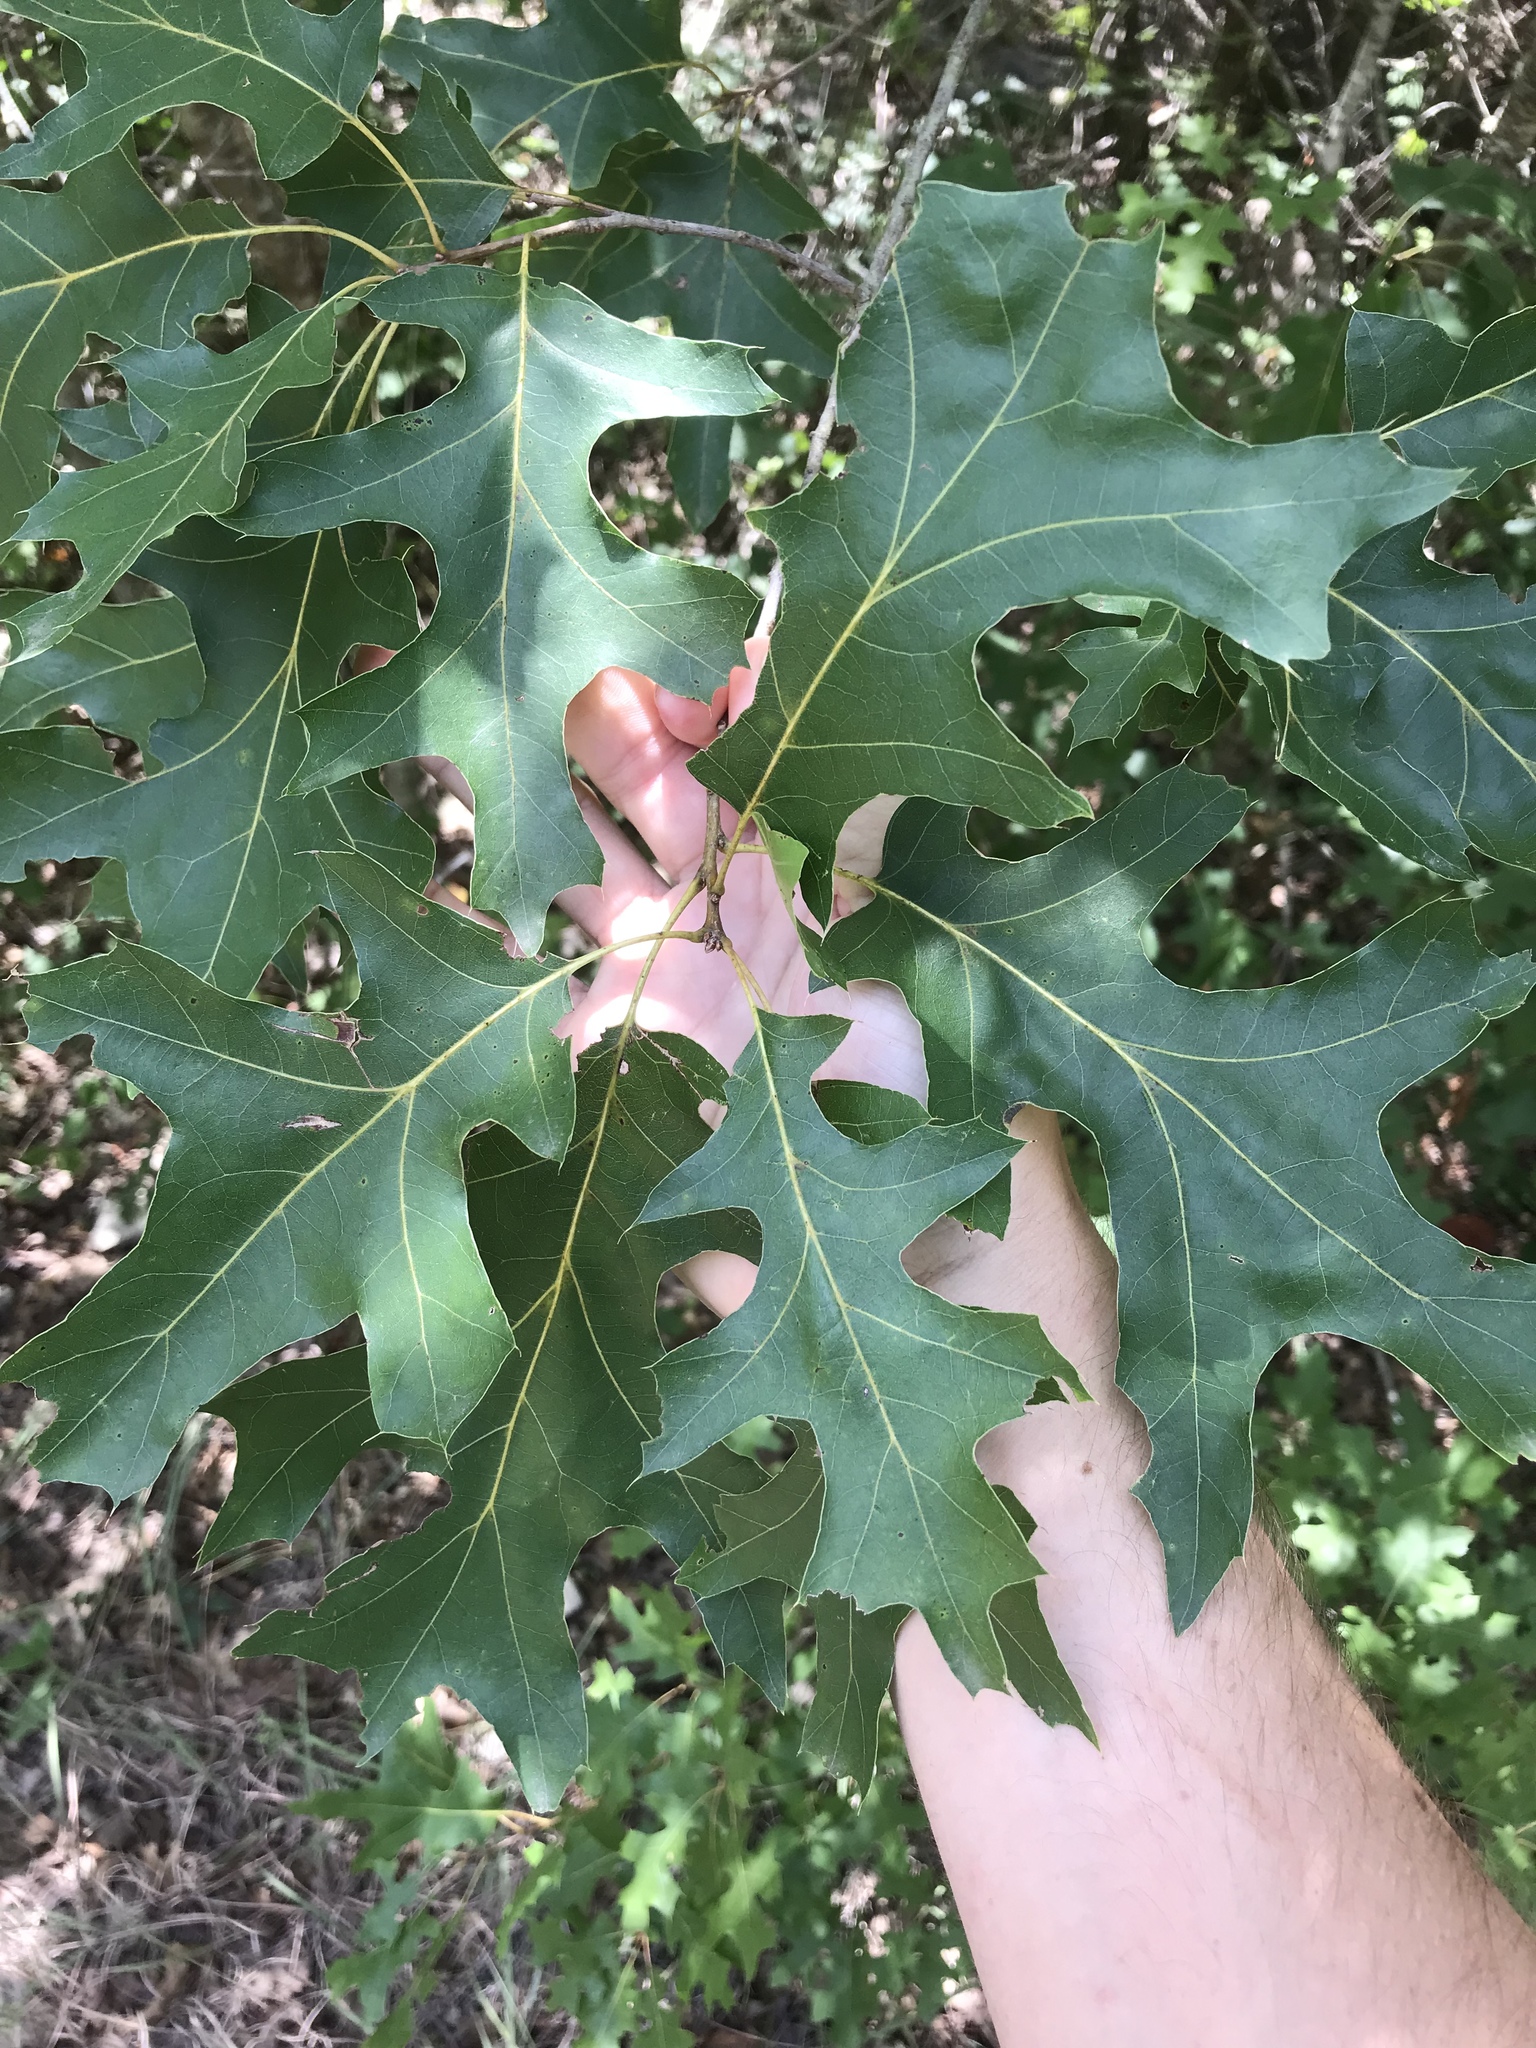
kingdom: Plantae
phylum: Tracheophyta
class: Magnoliopsida
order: Fagales
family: Fagaceae
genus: Quercus
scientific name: Quercus buckleyi
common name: Buckley oak
